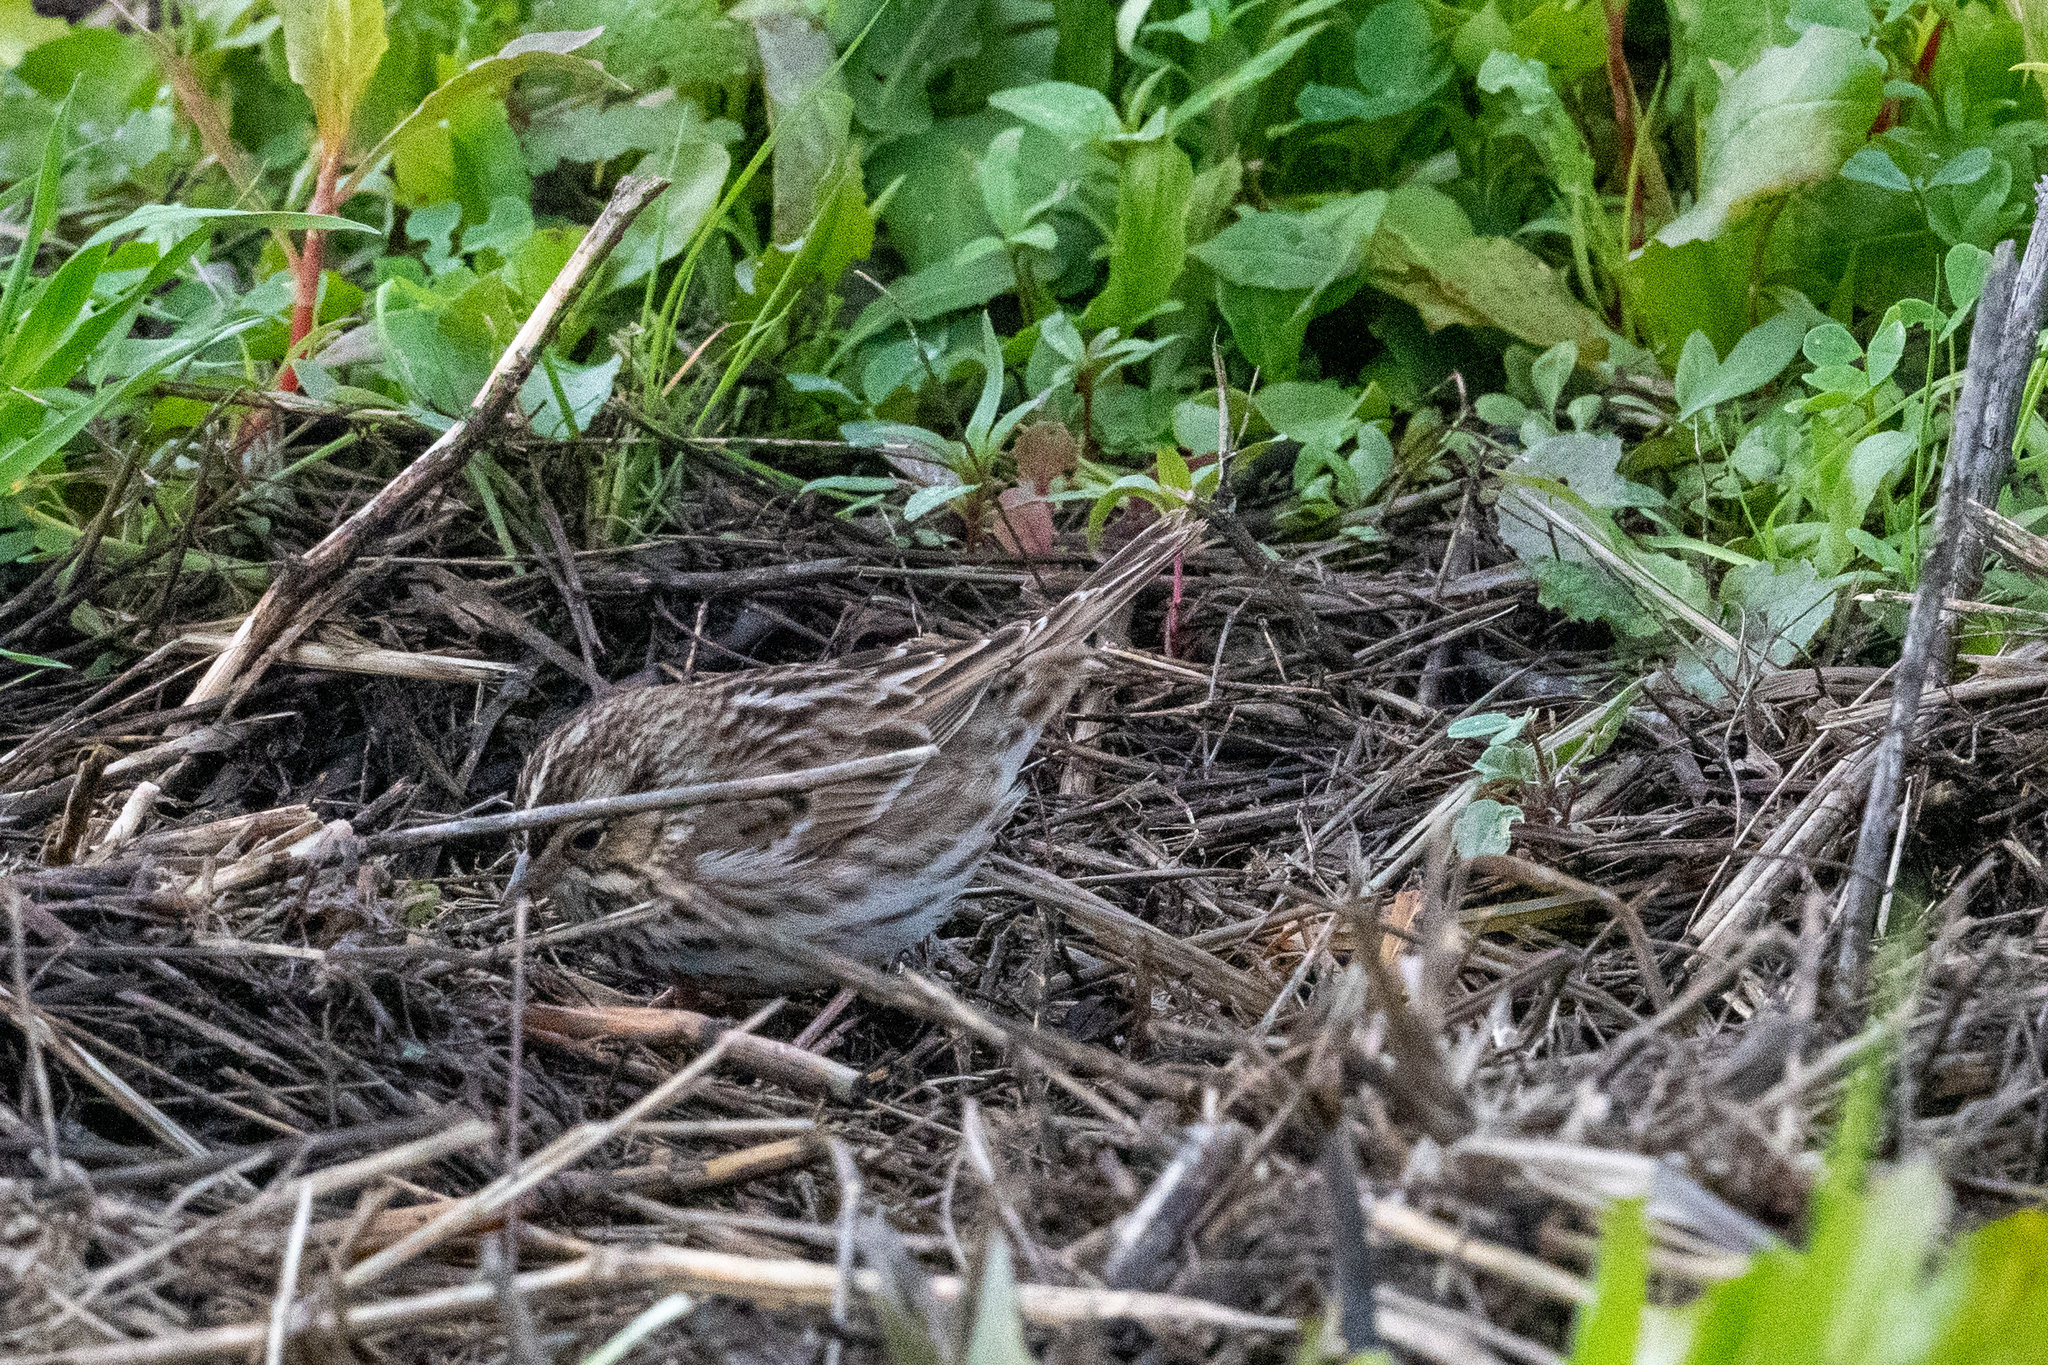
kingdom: Animalia
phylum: Chordata
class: Aves
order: Passeriformes
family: Passerellidae
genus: Passerculus
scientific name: Passerculus sandwichensis
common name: Savannah sparrow
